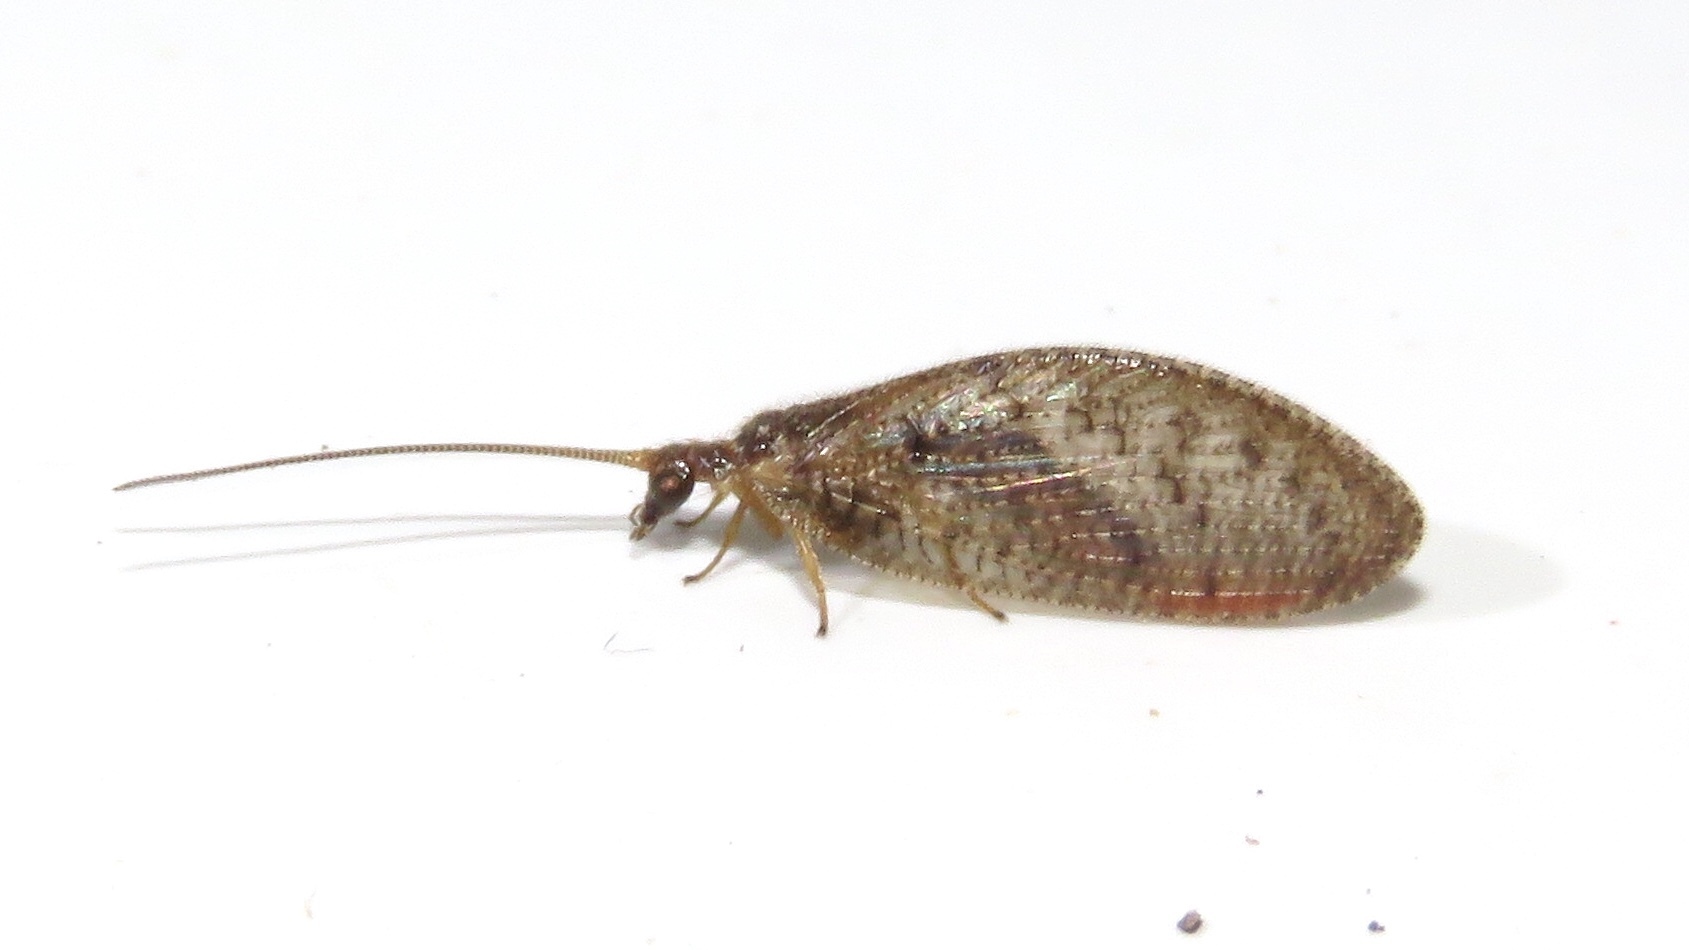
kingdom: Animalia
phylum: Arthropoda
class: Insecta
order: Neuroptera
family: Hemerobiidae
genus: Hemerobius
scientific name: Hemerobius stigma
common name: Brown pine lacewing
